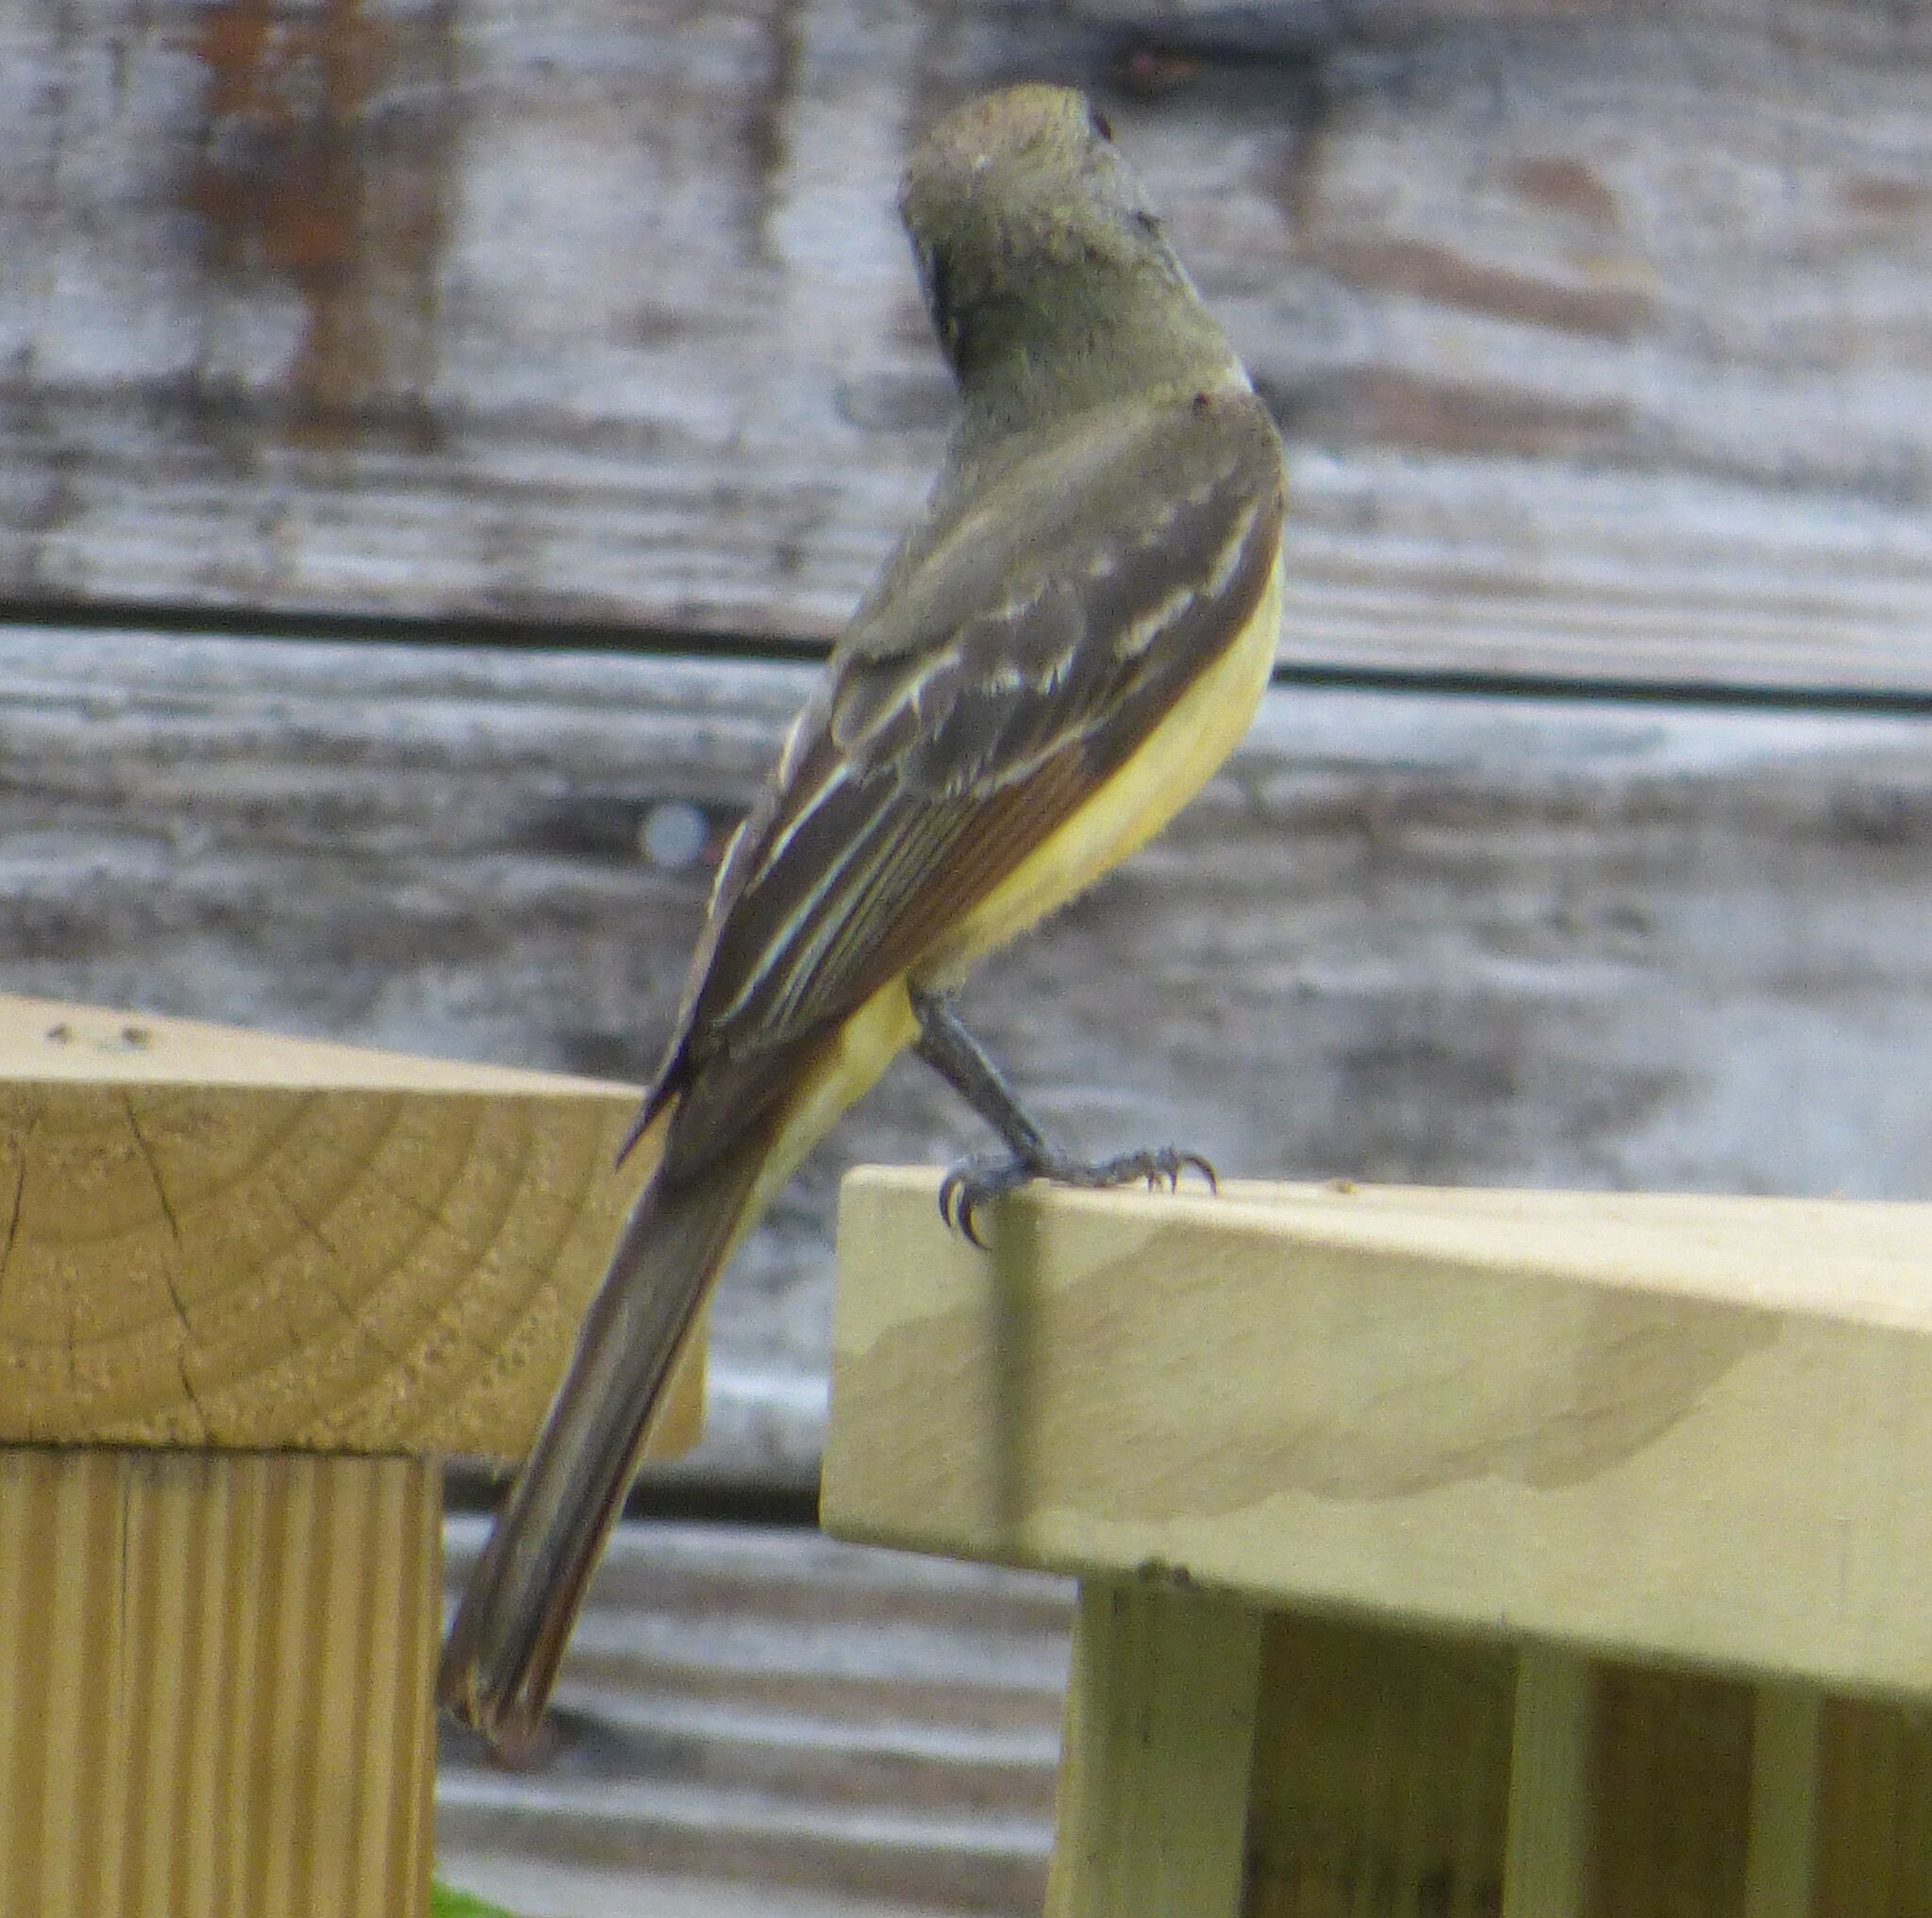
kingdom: Animalia
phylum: Chordata
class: Aves
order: Passeriformes
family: Tyrannidae
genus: Myiarchus
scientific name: Myiarchus crinitus
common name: Great crested flycatcher
